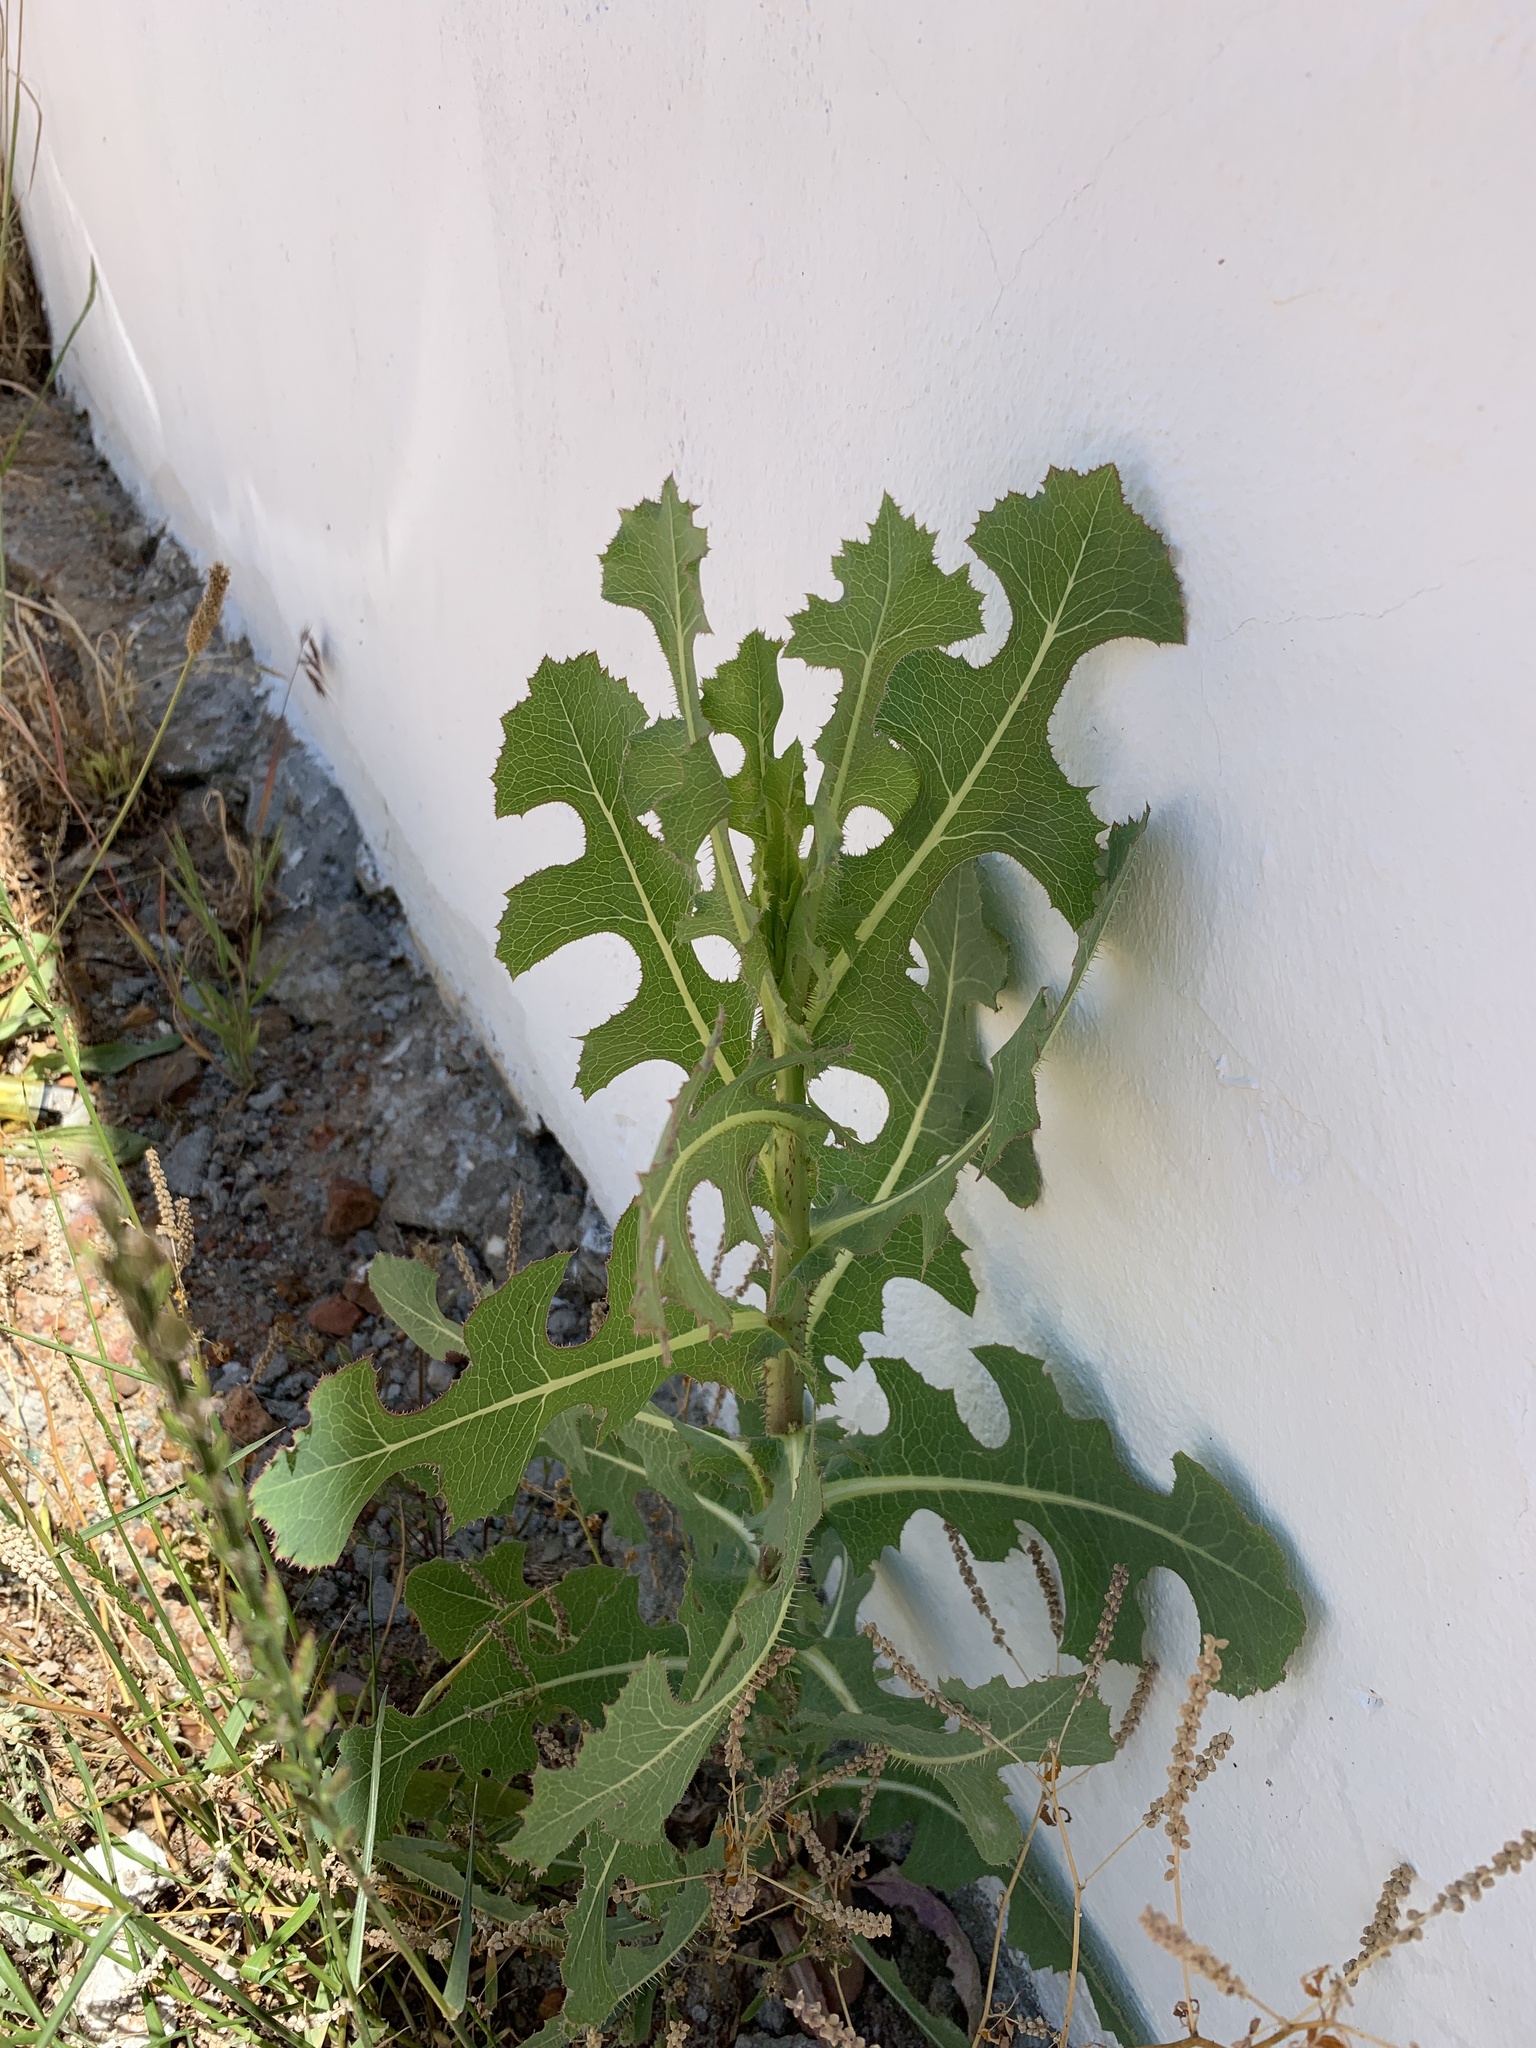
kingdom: Plantae
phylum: Tracheophyta
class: Magnoliopsida
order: Asterales
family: Asteraceae
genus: Lactuca
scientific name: Lactuca serriola
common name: Prickly lettuce
